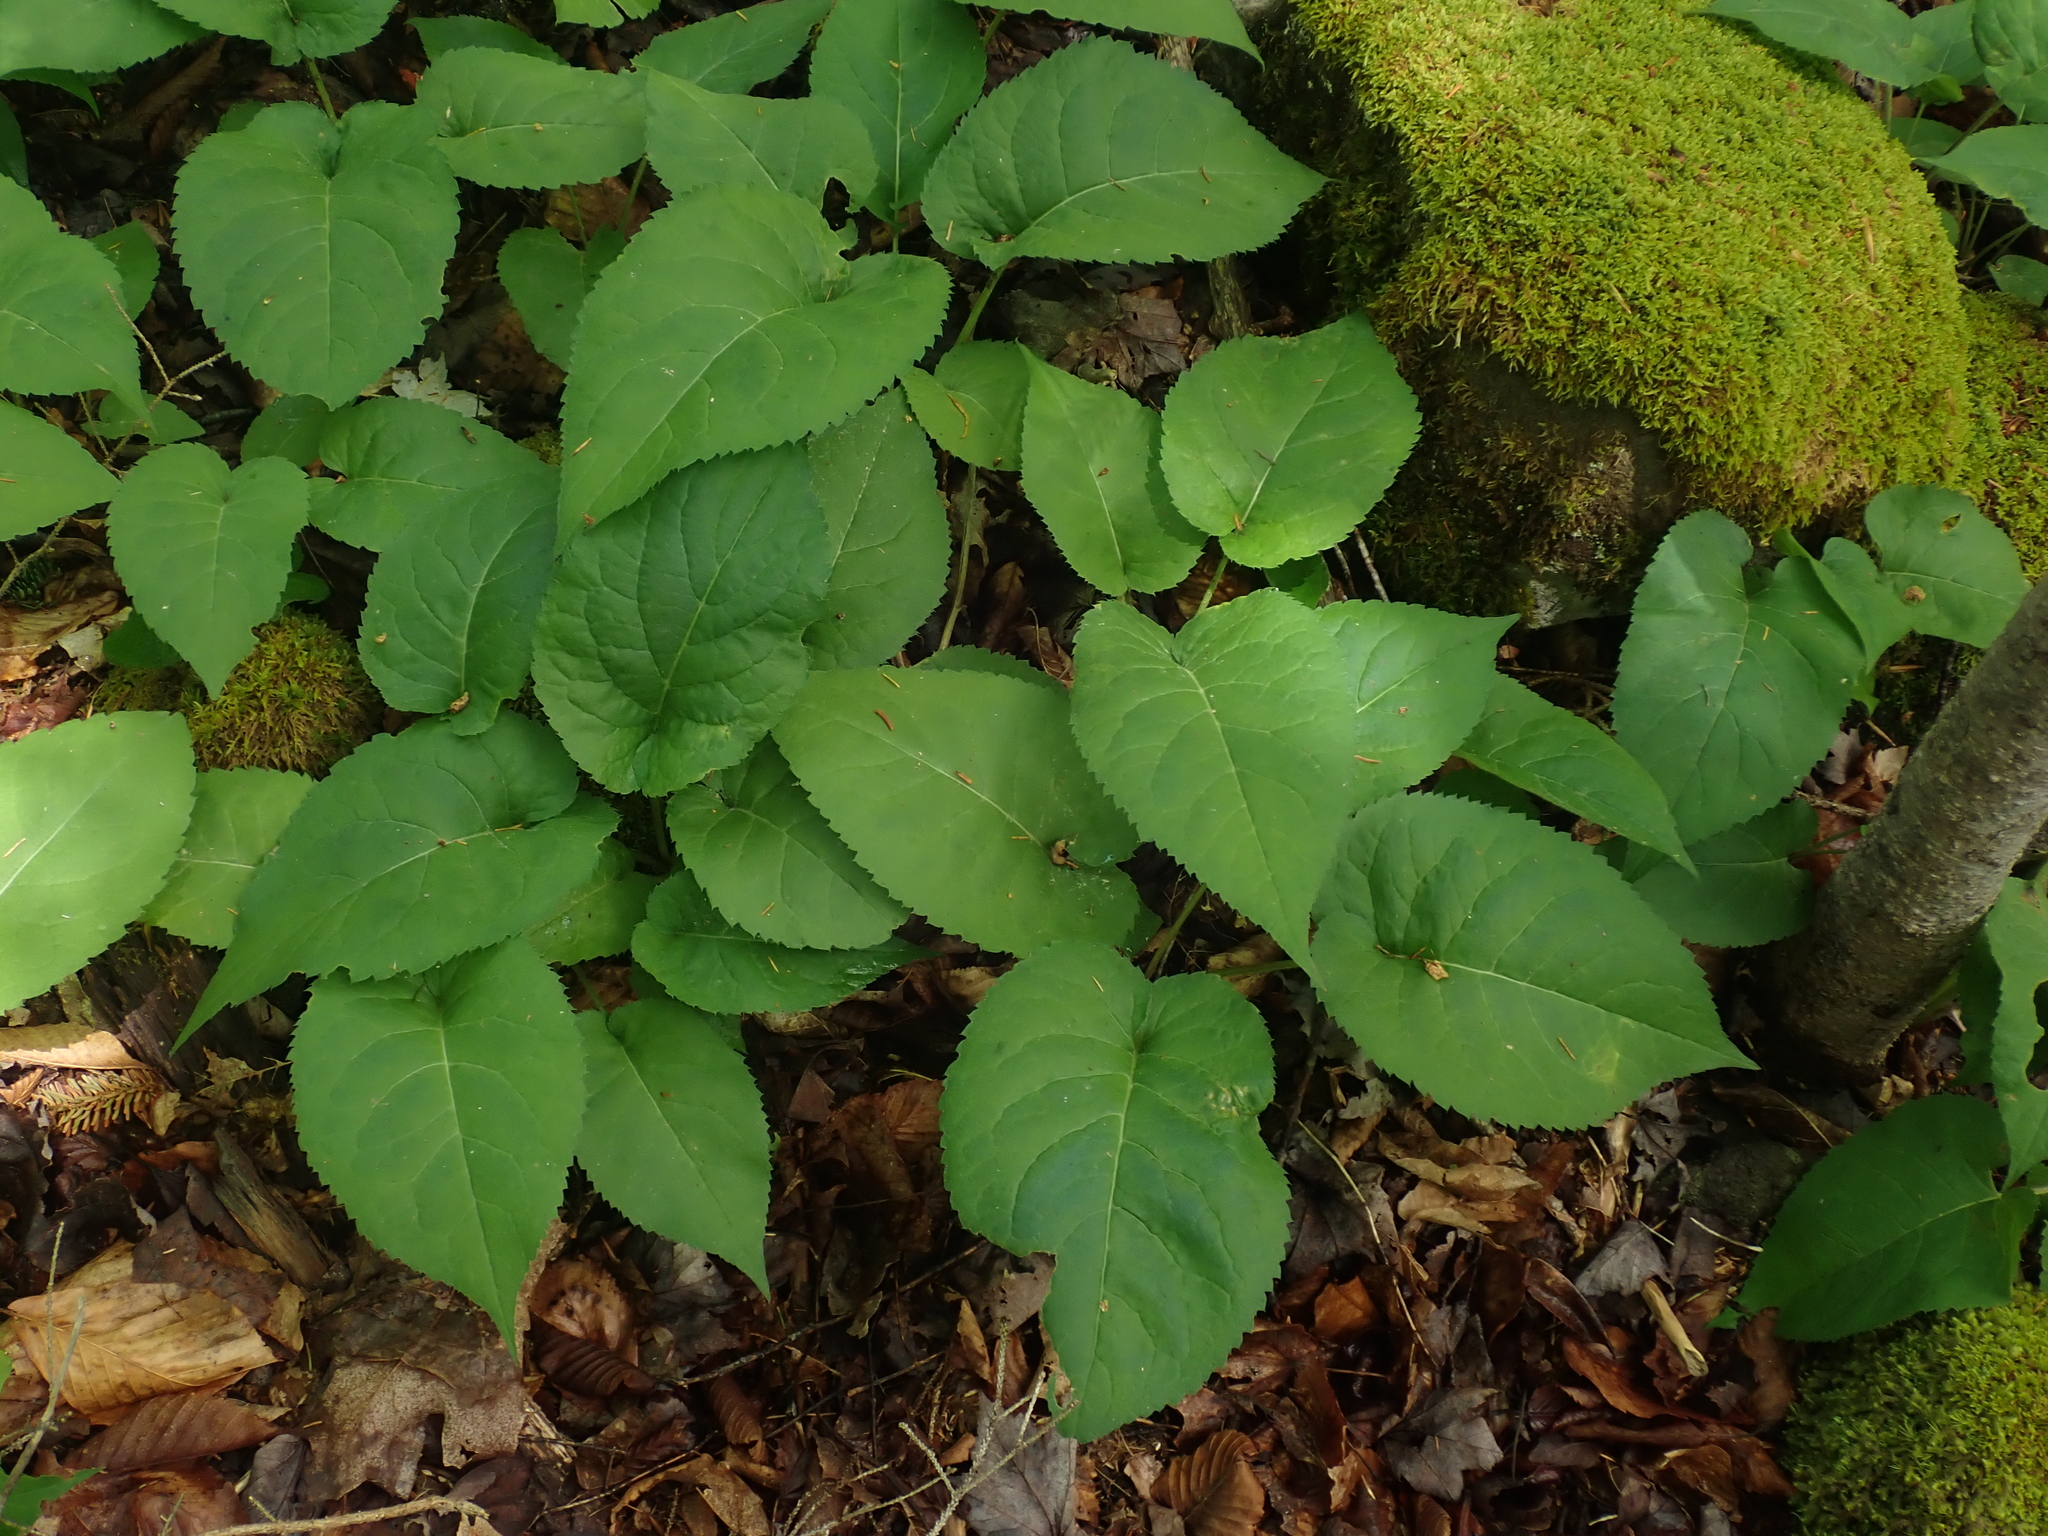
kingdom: Plantae
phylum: Tracheophyta
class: Magnoliopsida
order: Asterales
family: Asteraceae
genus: Eurybia
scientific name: Eurybia macrophylla
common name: Big-leaved aster
